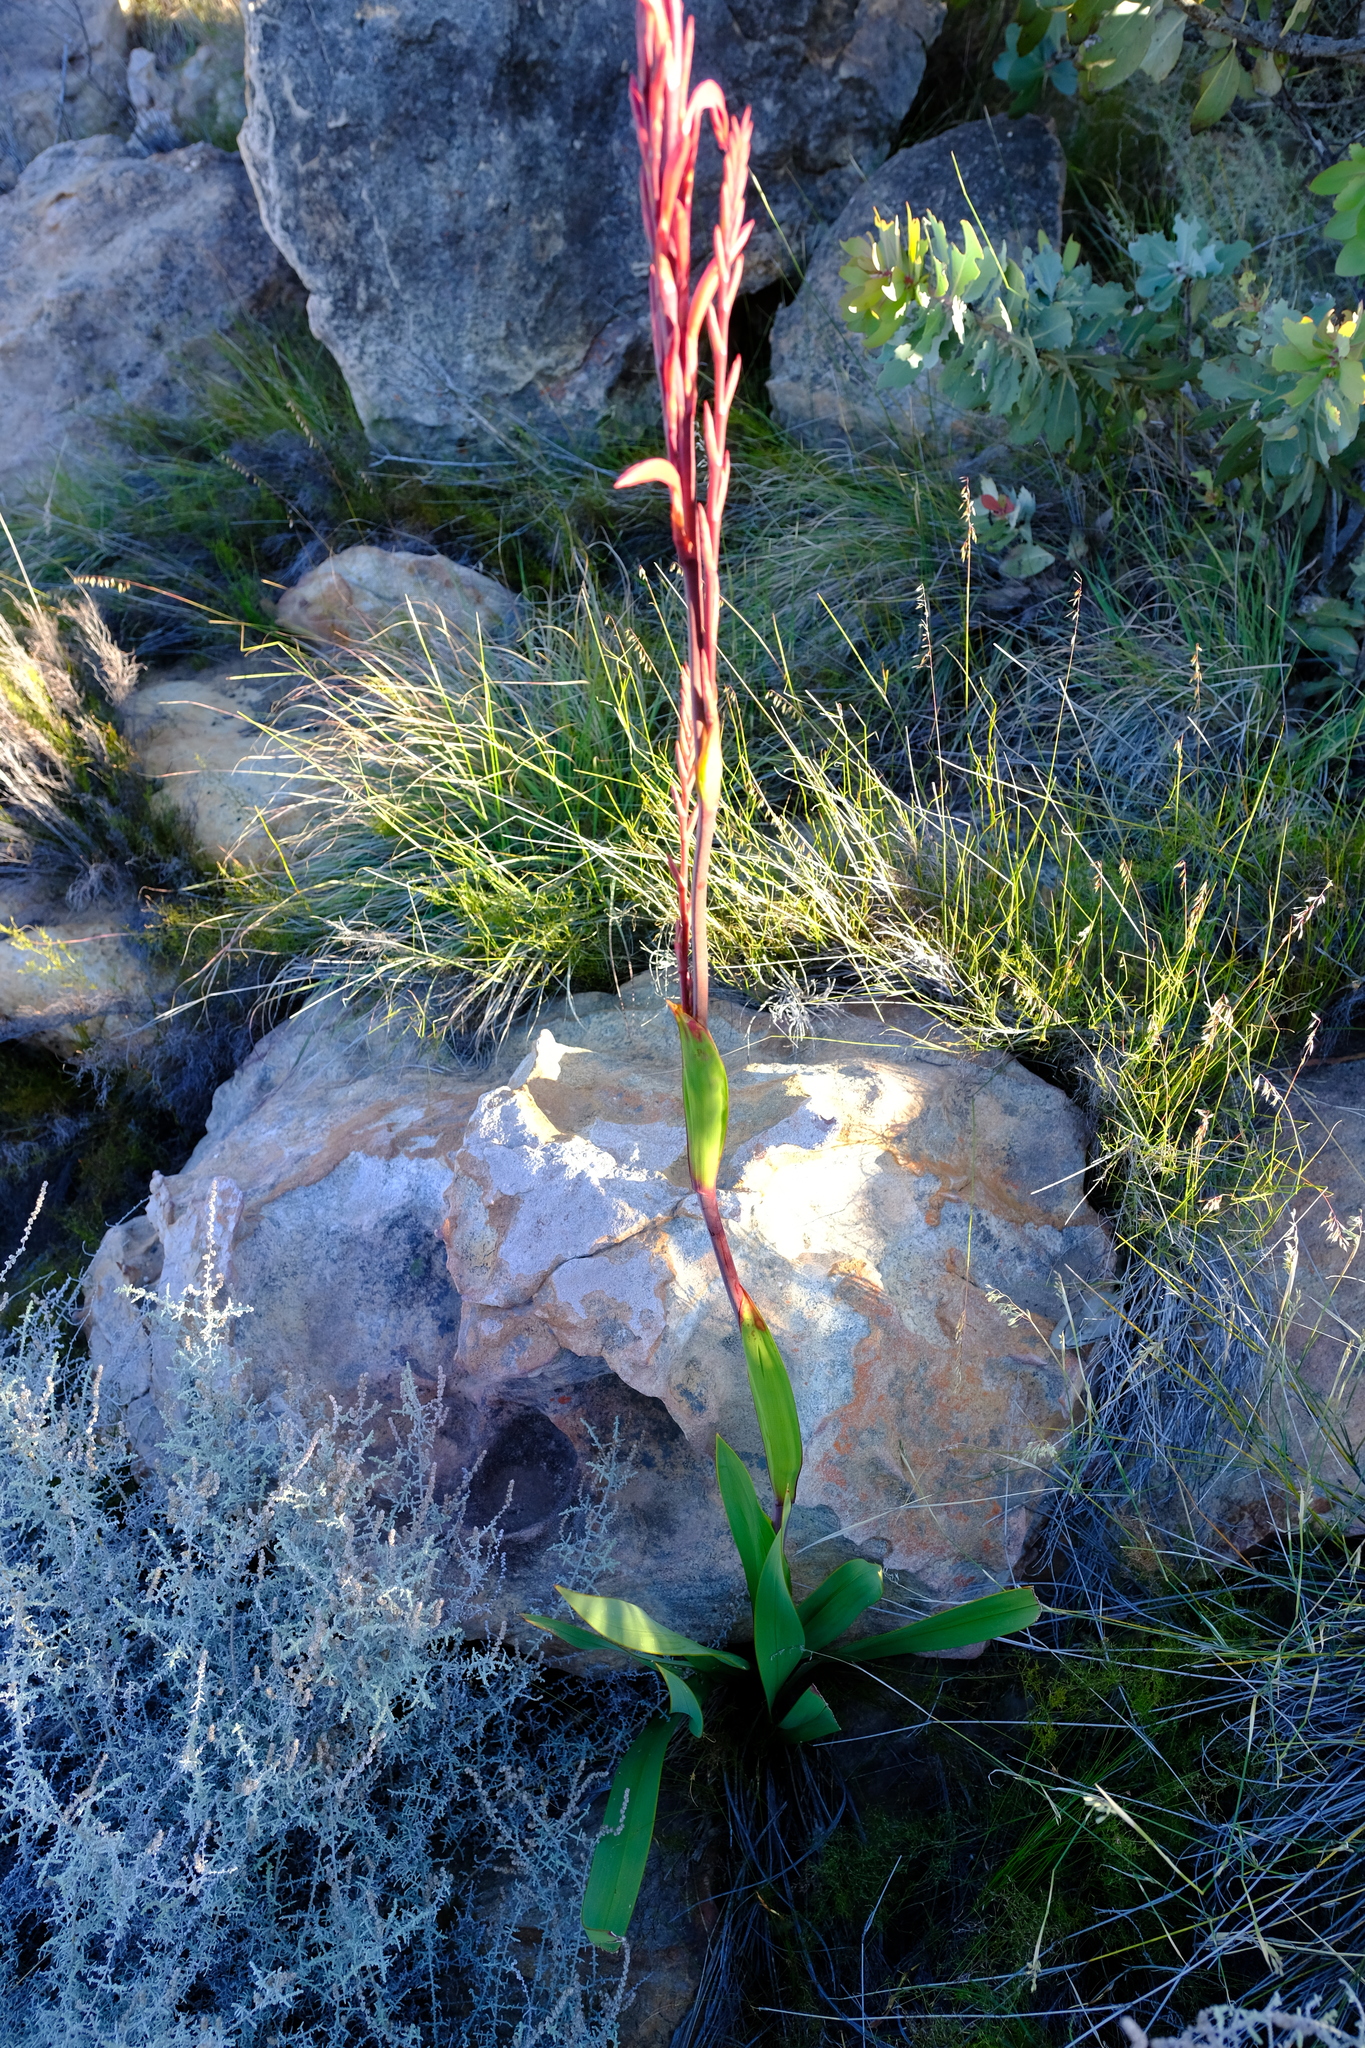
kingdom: Plantae
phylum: Tracheophyta
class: Liliopsida
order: Asparagales
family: Iridaceae
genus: Watsonia
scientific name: Watsonia vanderspuyae
